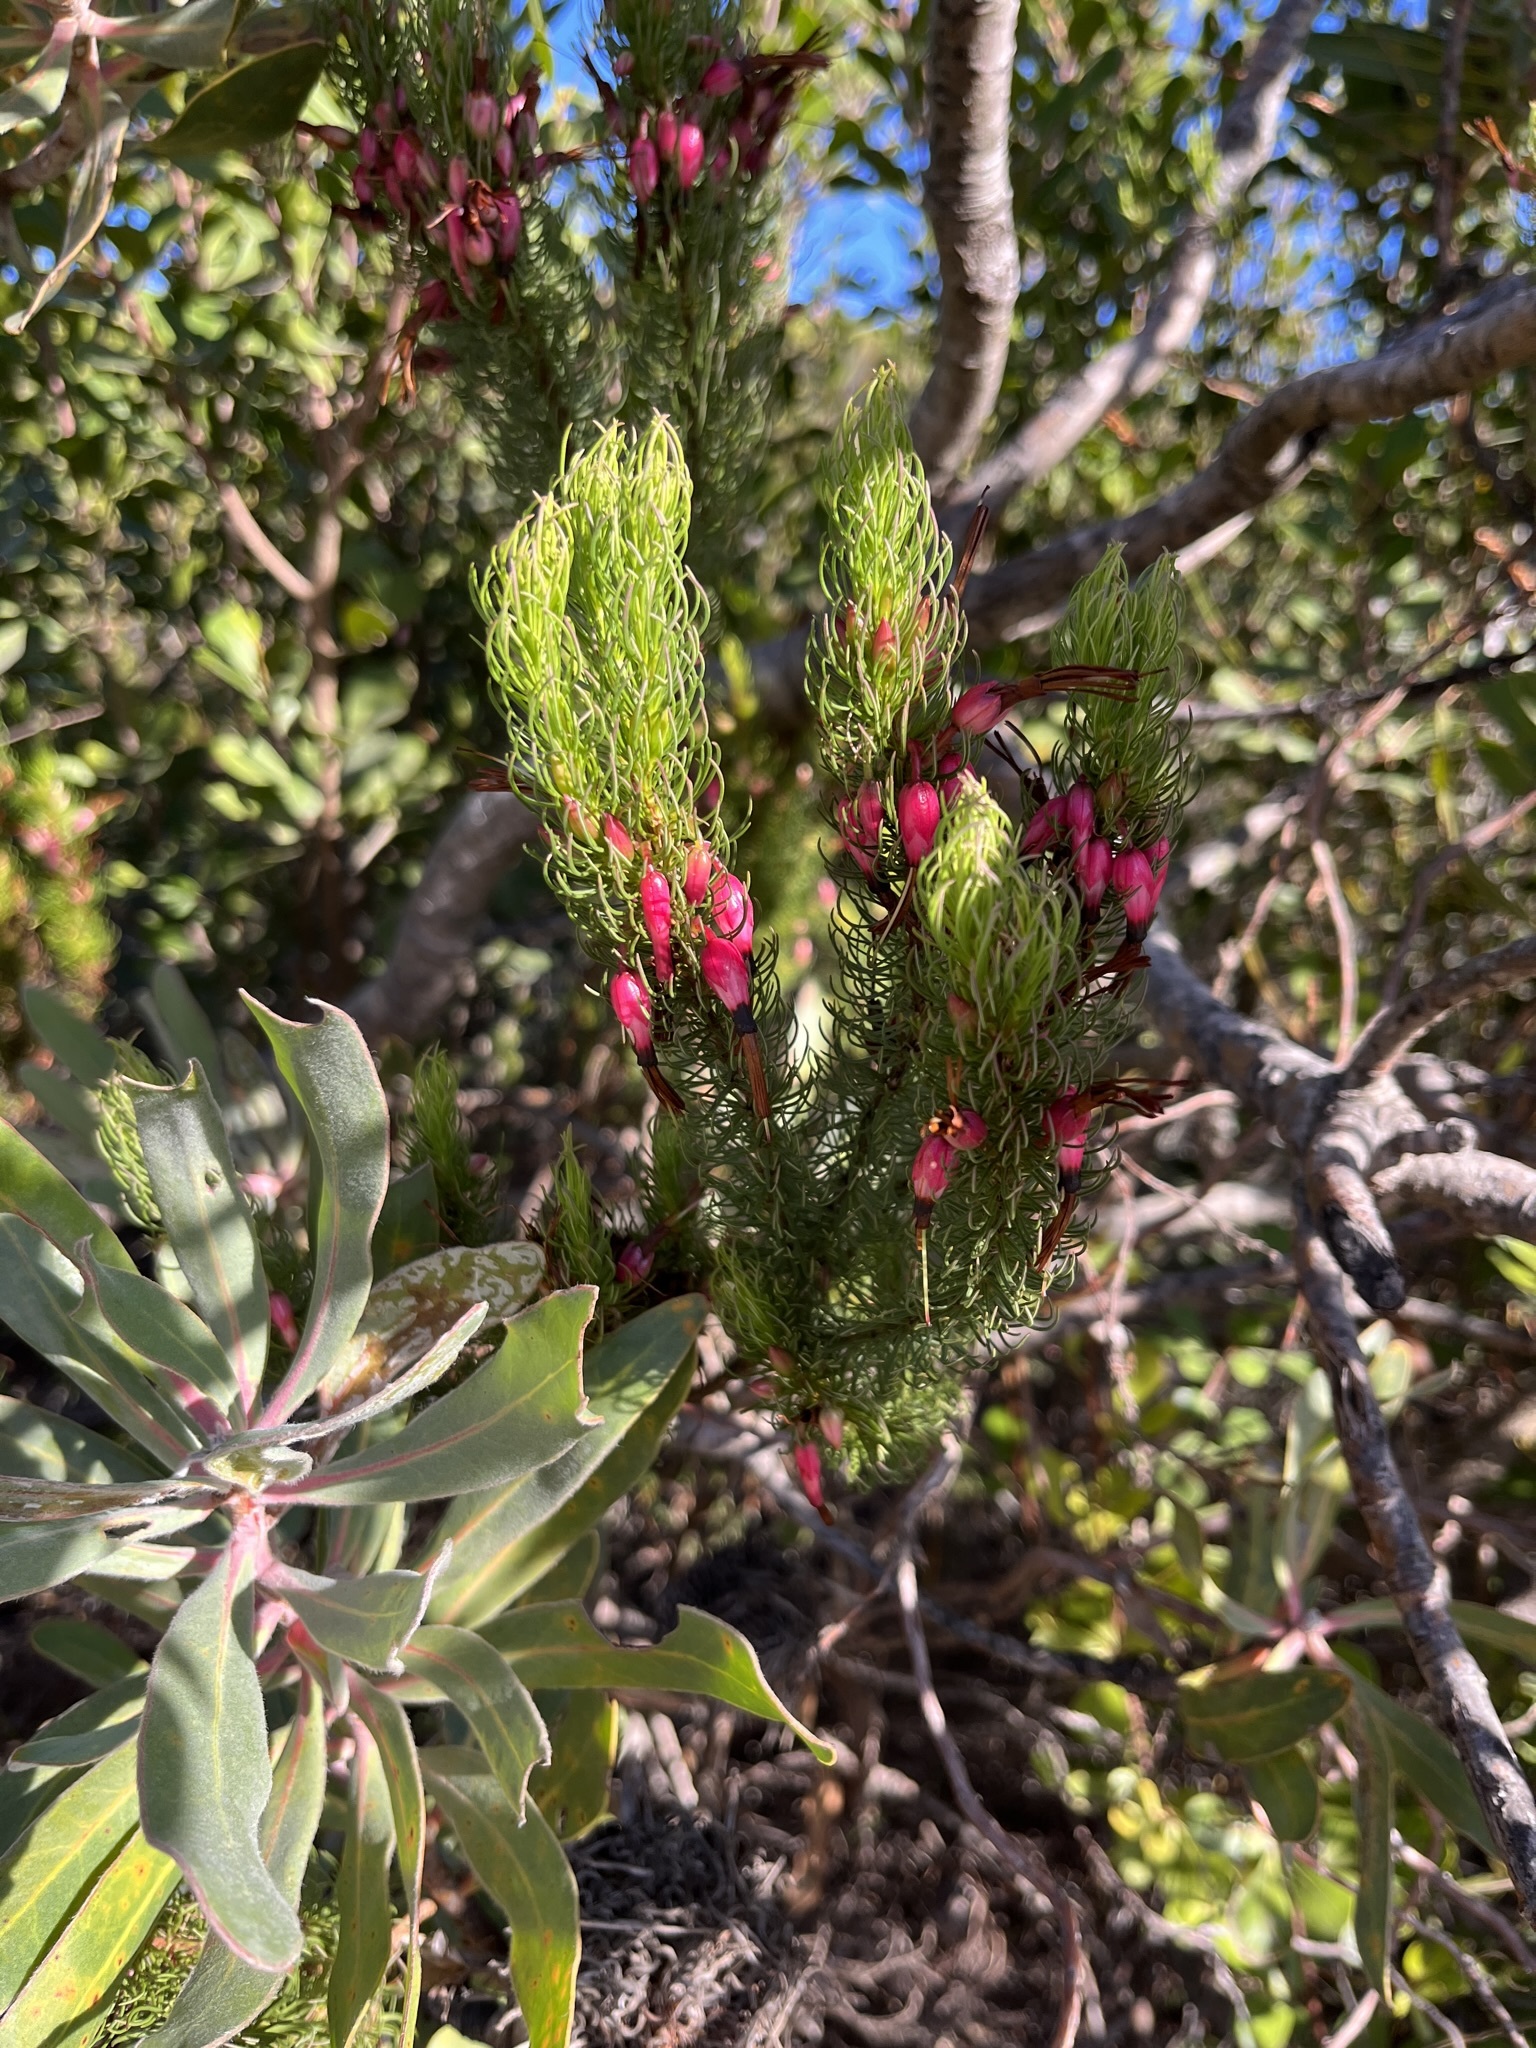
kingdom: Plantae
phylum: Tracheophyta
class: Magnoliopsida
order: Ericales
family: Ericaceae
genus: Erica
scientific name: Erica plukenetii
